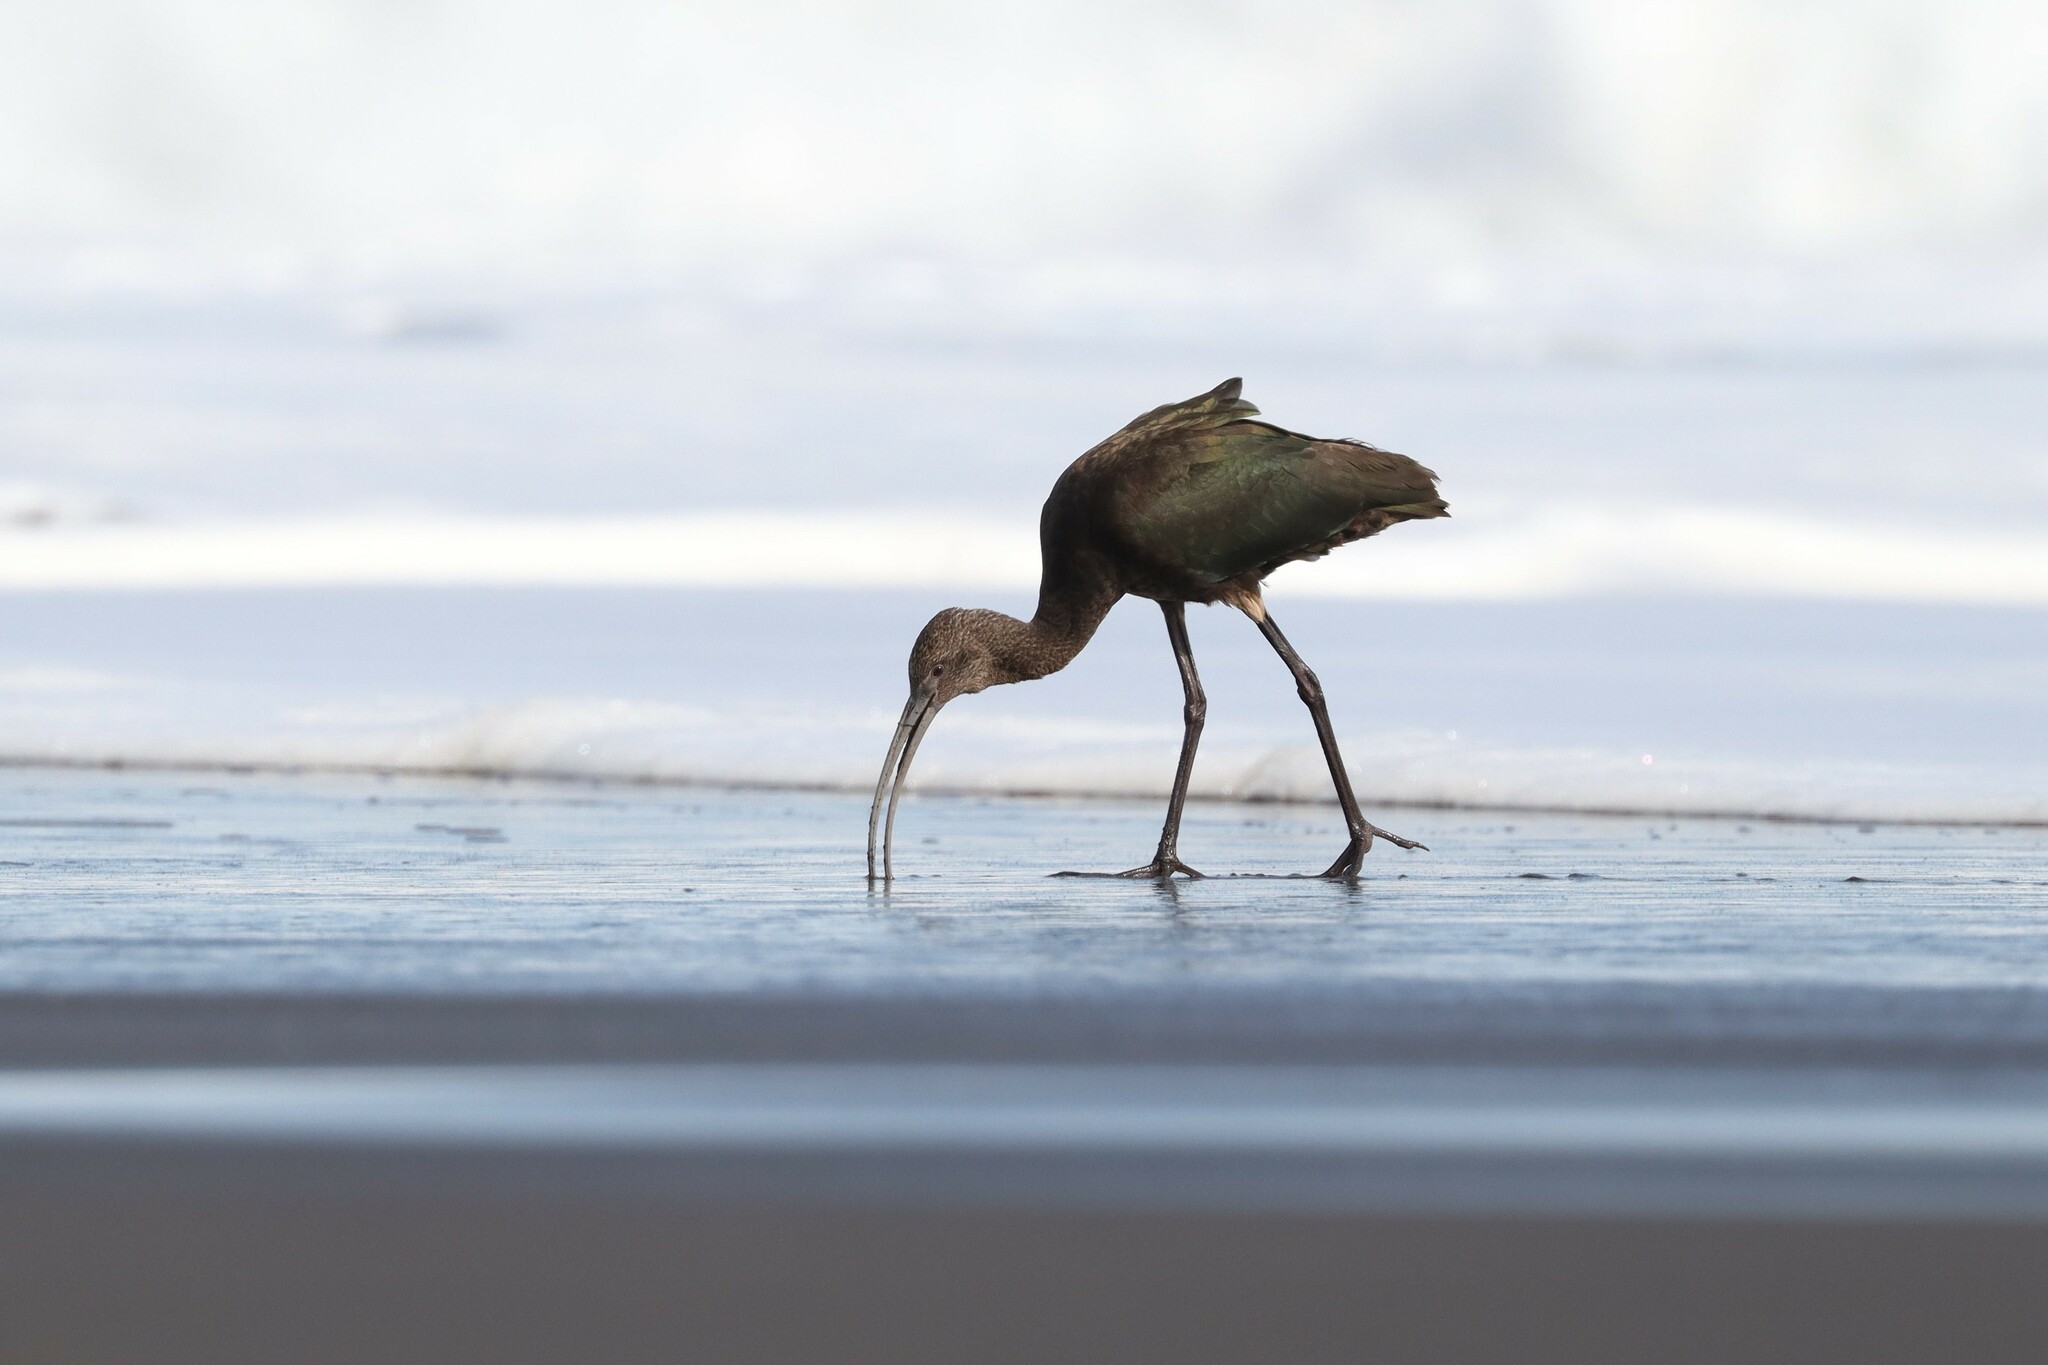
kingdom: Animalia
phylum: Chordata
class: Aves
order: Pelecaniformes
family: Threskiornithidae
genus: Plegadis
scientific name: Plegadis chihi
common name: White-faced ibis
